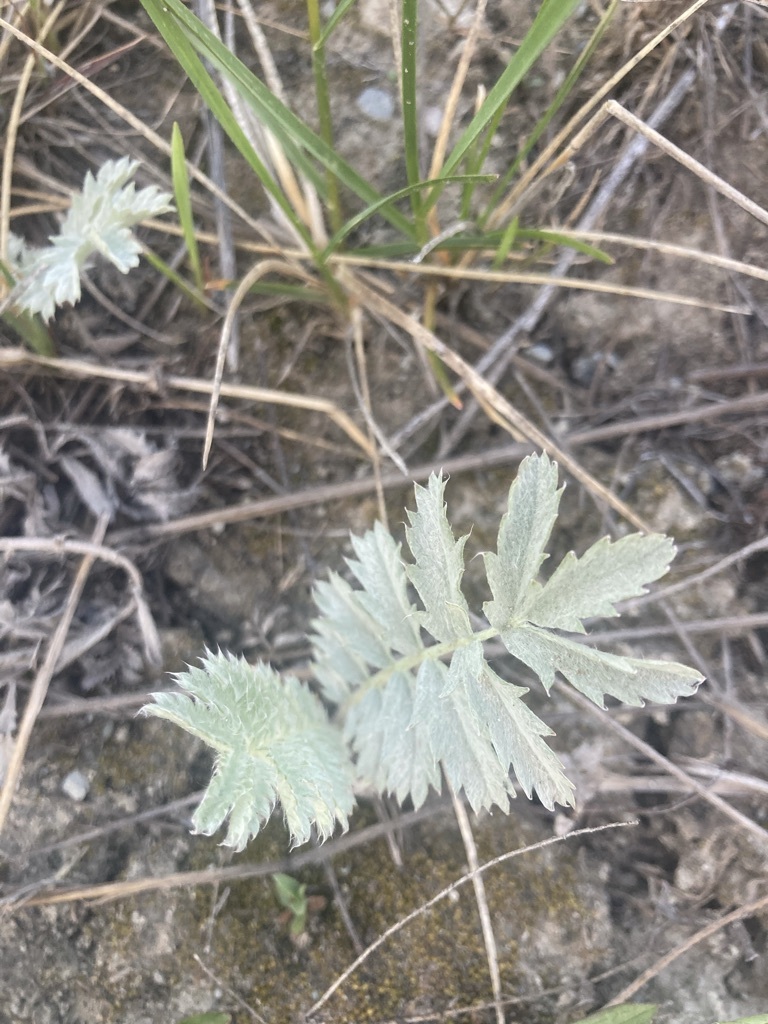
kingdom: Plantae
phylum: Tracheophyta
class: Magnoliopsida
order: Rosales
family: Rosaceae
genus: Argentina
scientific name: Argentina anserina
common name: Common silverweed
